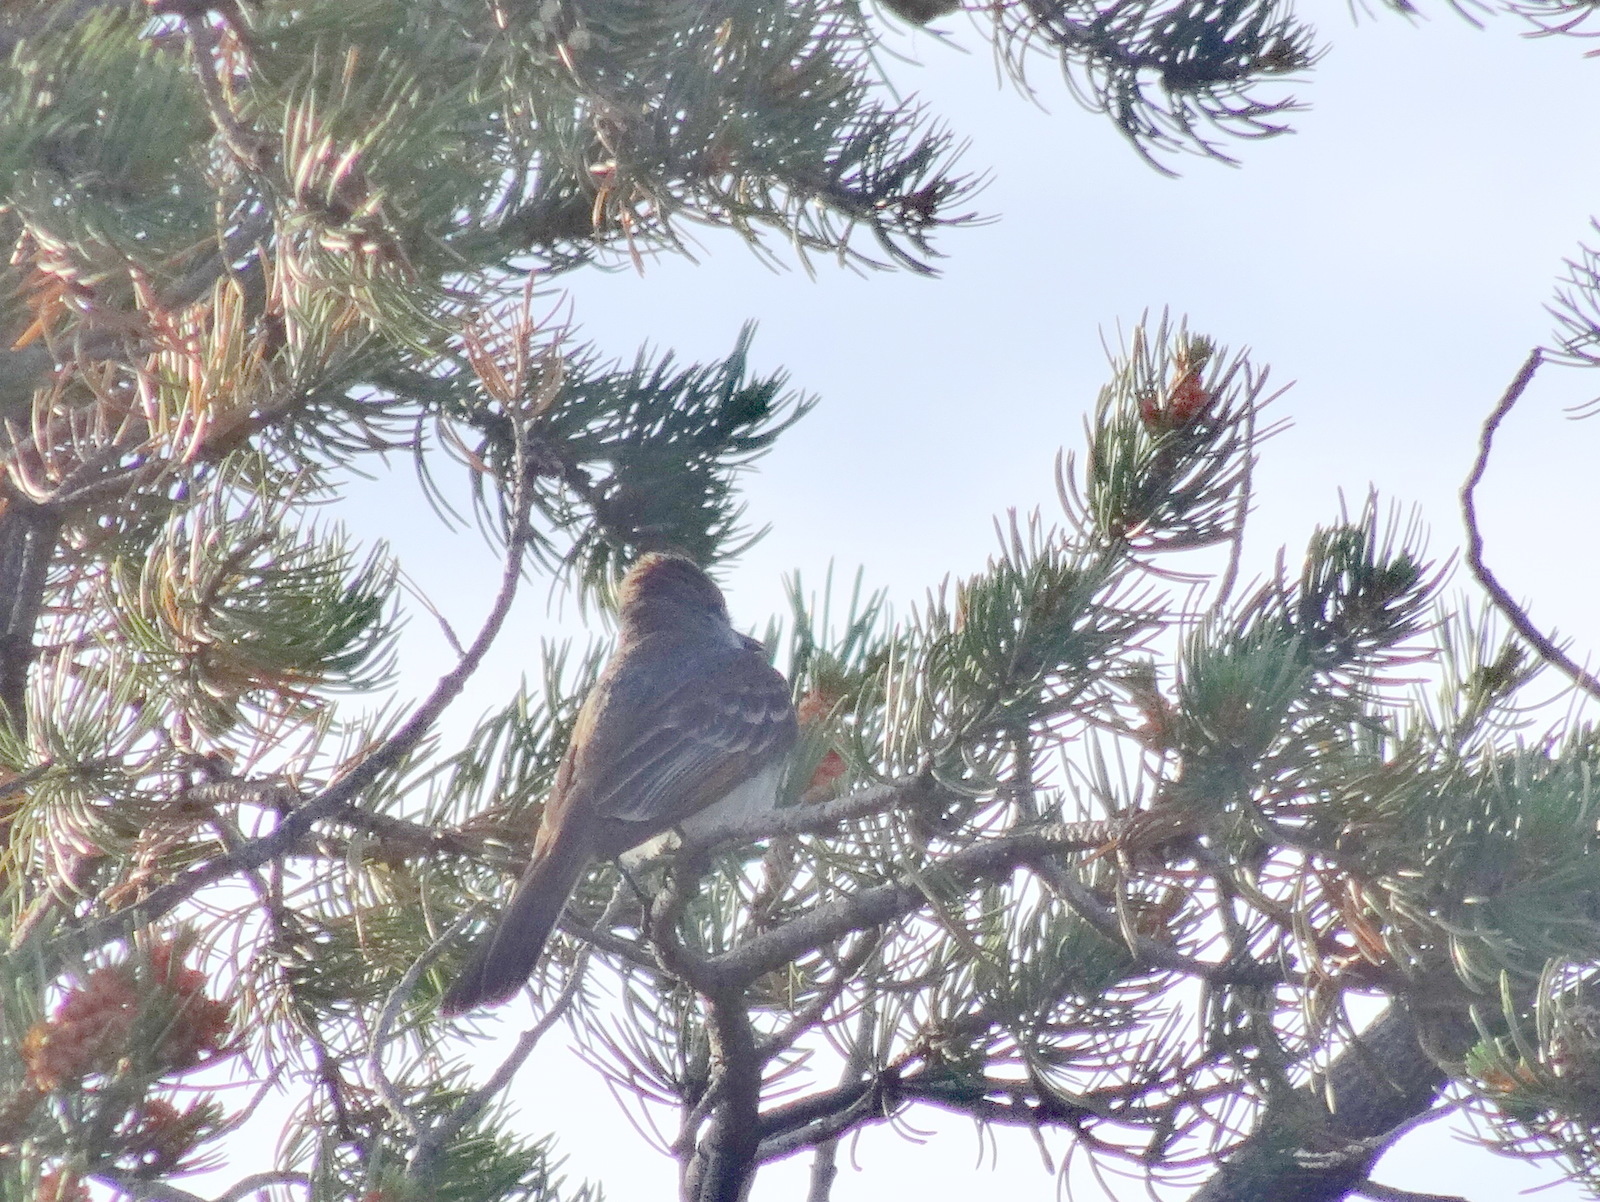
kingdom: Animalia
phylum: Chordata
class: Aves
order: Passeriformes
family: Tyrannidae
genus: Myiarchus
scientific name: Myiarchus cinerascens
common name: Ash-throated flycatcher
